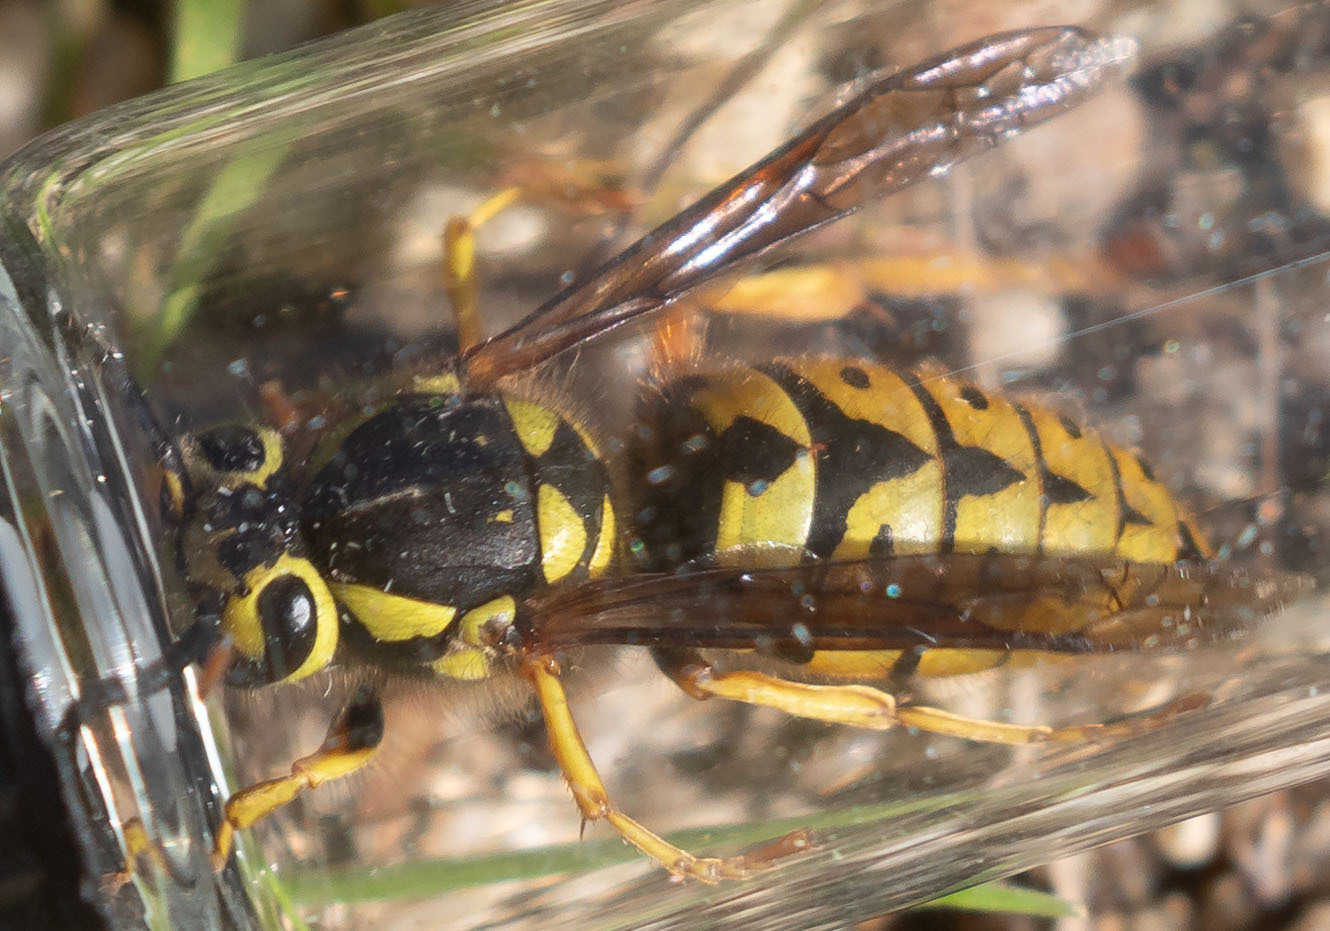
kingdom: Animalia
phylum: Arthropoda
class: Insecta
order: Hymenoptera
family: Vespidae
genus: Vespula
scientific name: Vespula pensylvanica
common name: Western yellowjacket
